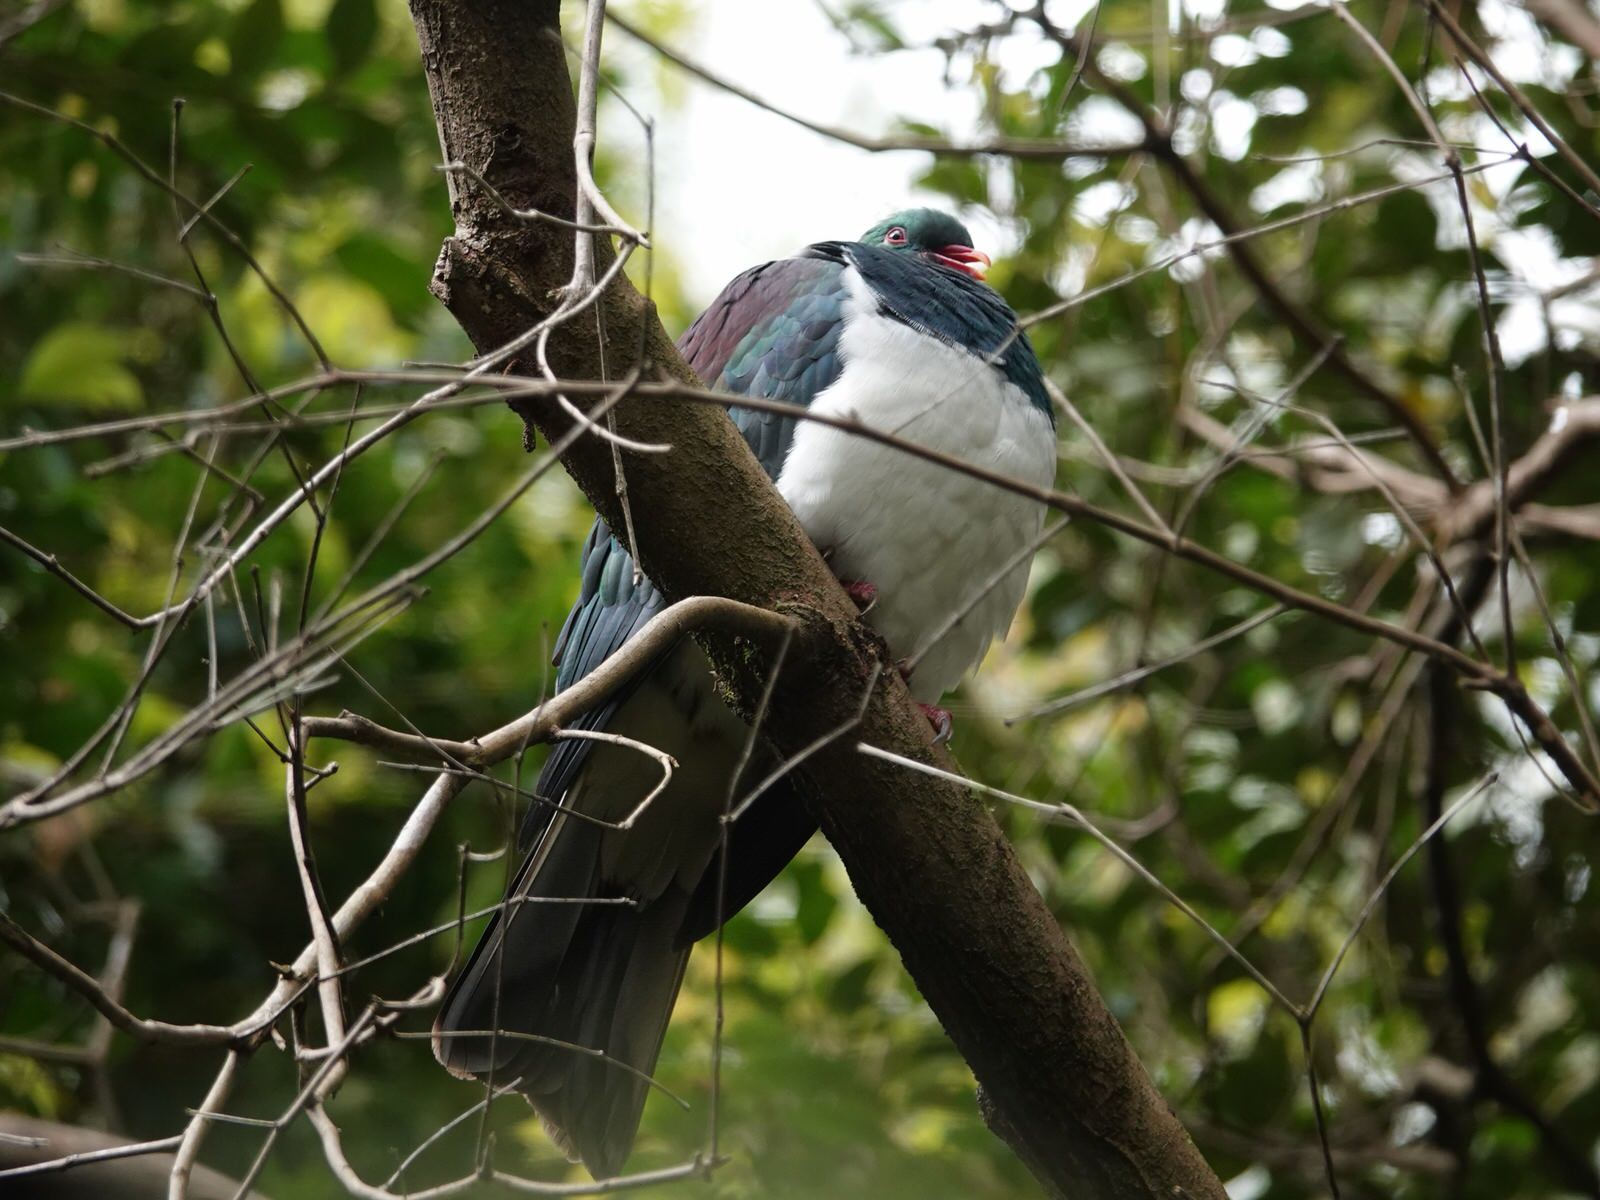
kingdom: Animalia
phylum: Chordata
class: Aves
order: Columbiformes
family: Columbidae
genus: Hemiphaga
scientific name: Hemiphaga novaeseelandiae
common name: New zealand pigeon
